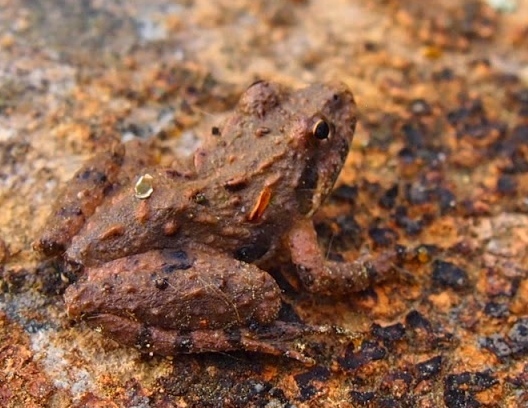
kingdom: Animalia
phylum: Chordata
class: Amphibia
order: Anura
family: Hylidae
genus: Acris
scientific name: Acris crepitans
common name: Northern cricket frog
